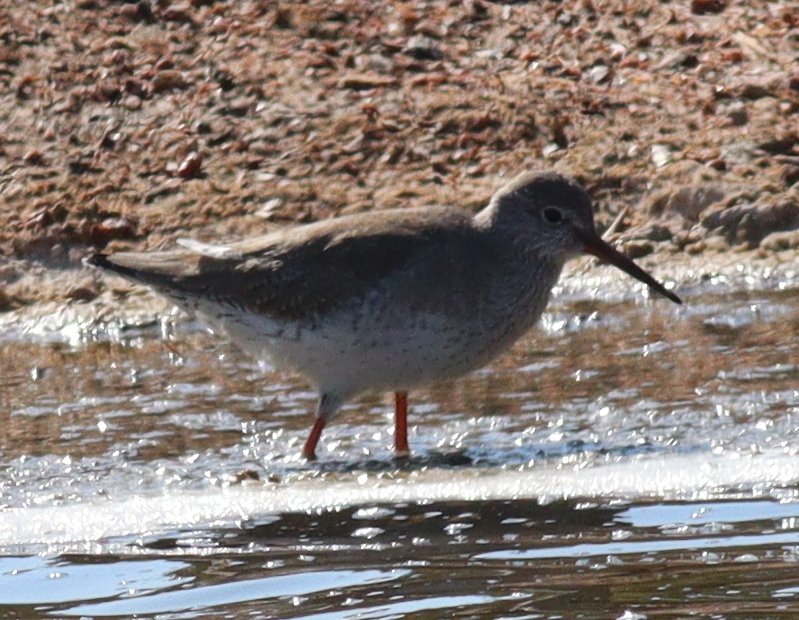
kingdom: Animalia
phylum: Chordata
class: Aves
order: Charadriiformes
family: Scolopacidae
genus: Tringa
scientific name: Tringa totanus
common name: Common redshank
